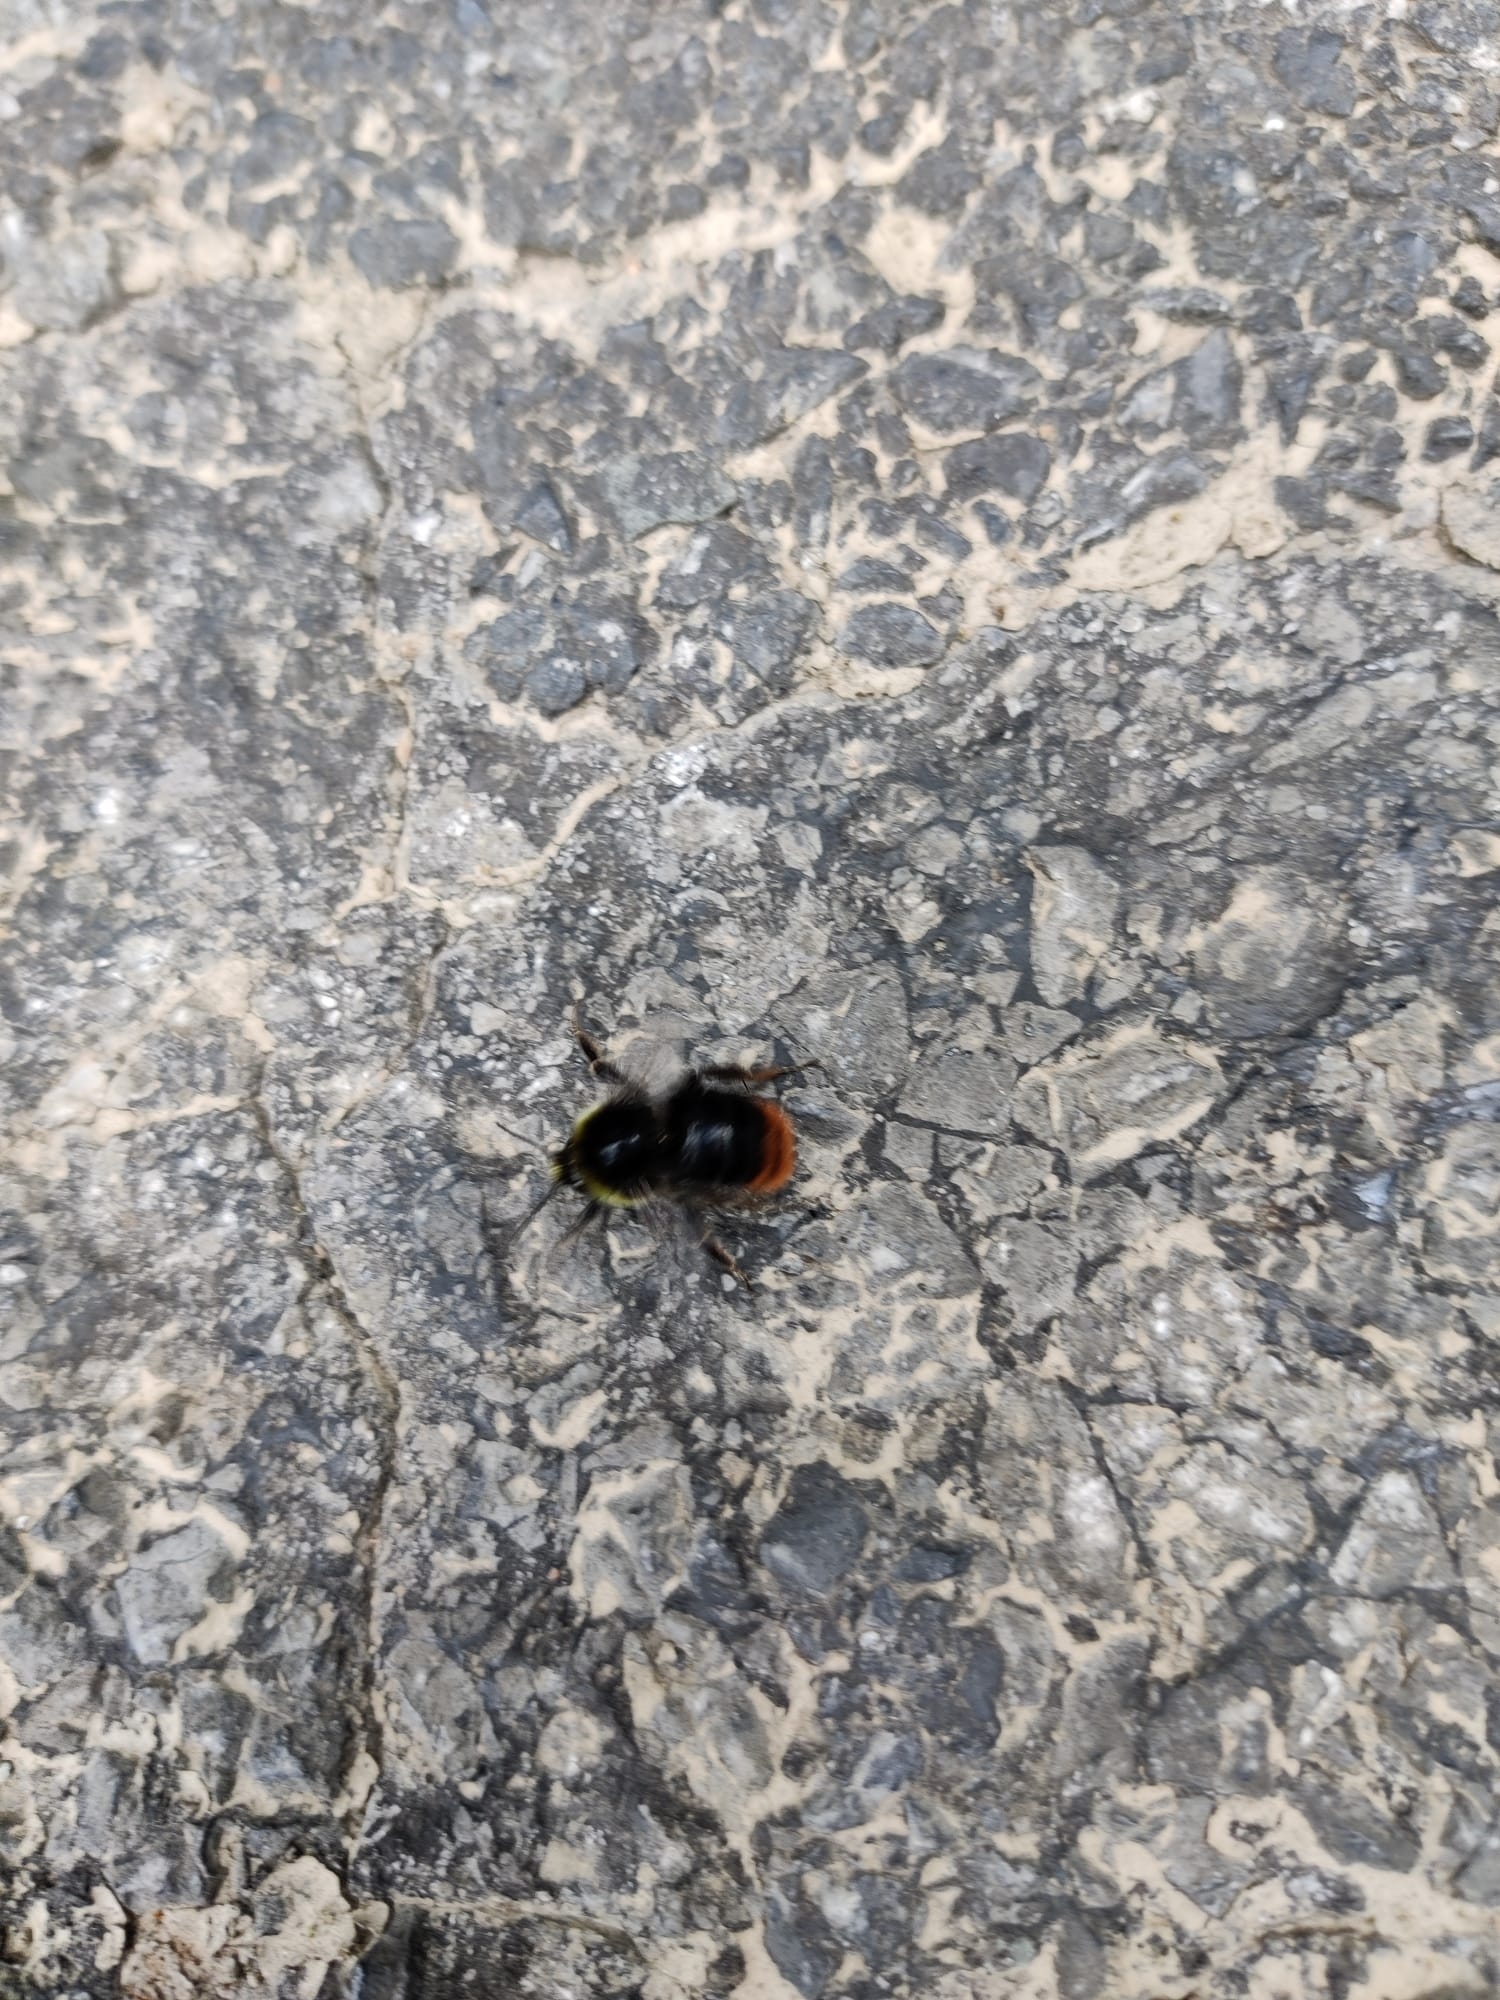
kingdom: Animalia
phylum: Arthropoda
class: Insecta
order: Hymenoptera
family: Apidae
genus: Bombus
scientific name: Bombus lapidarius
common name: Large red-tailed humble-bee
